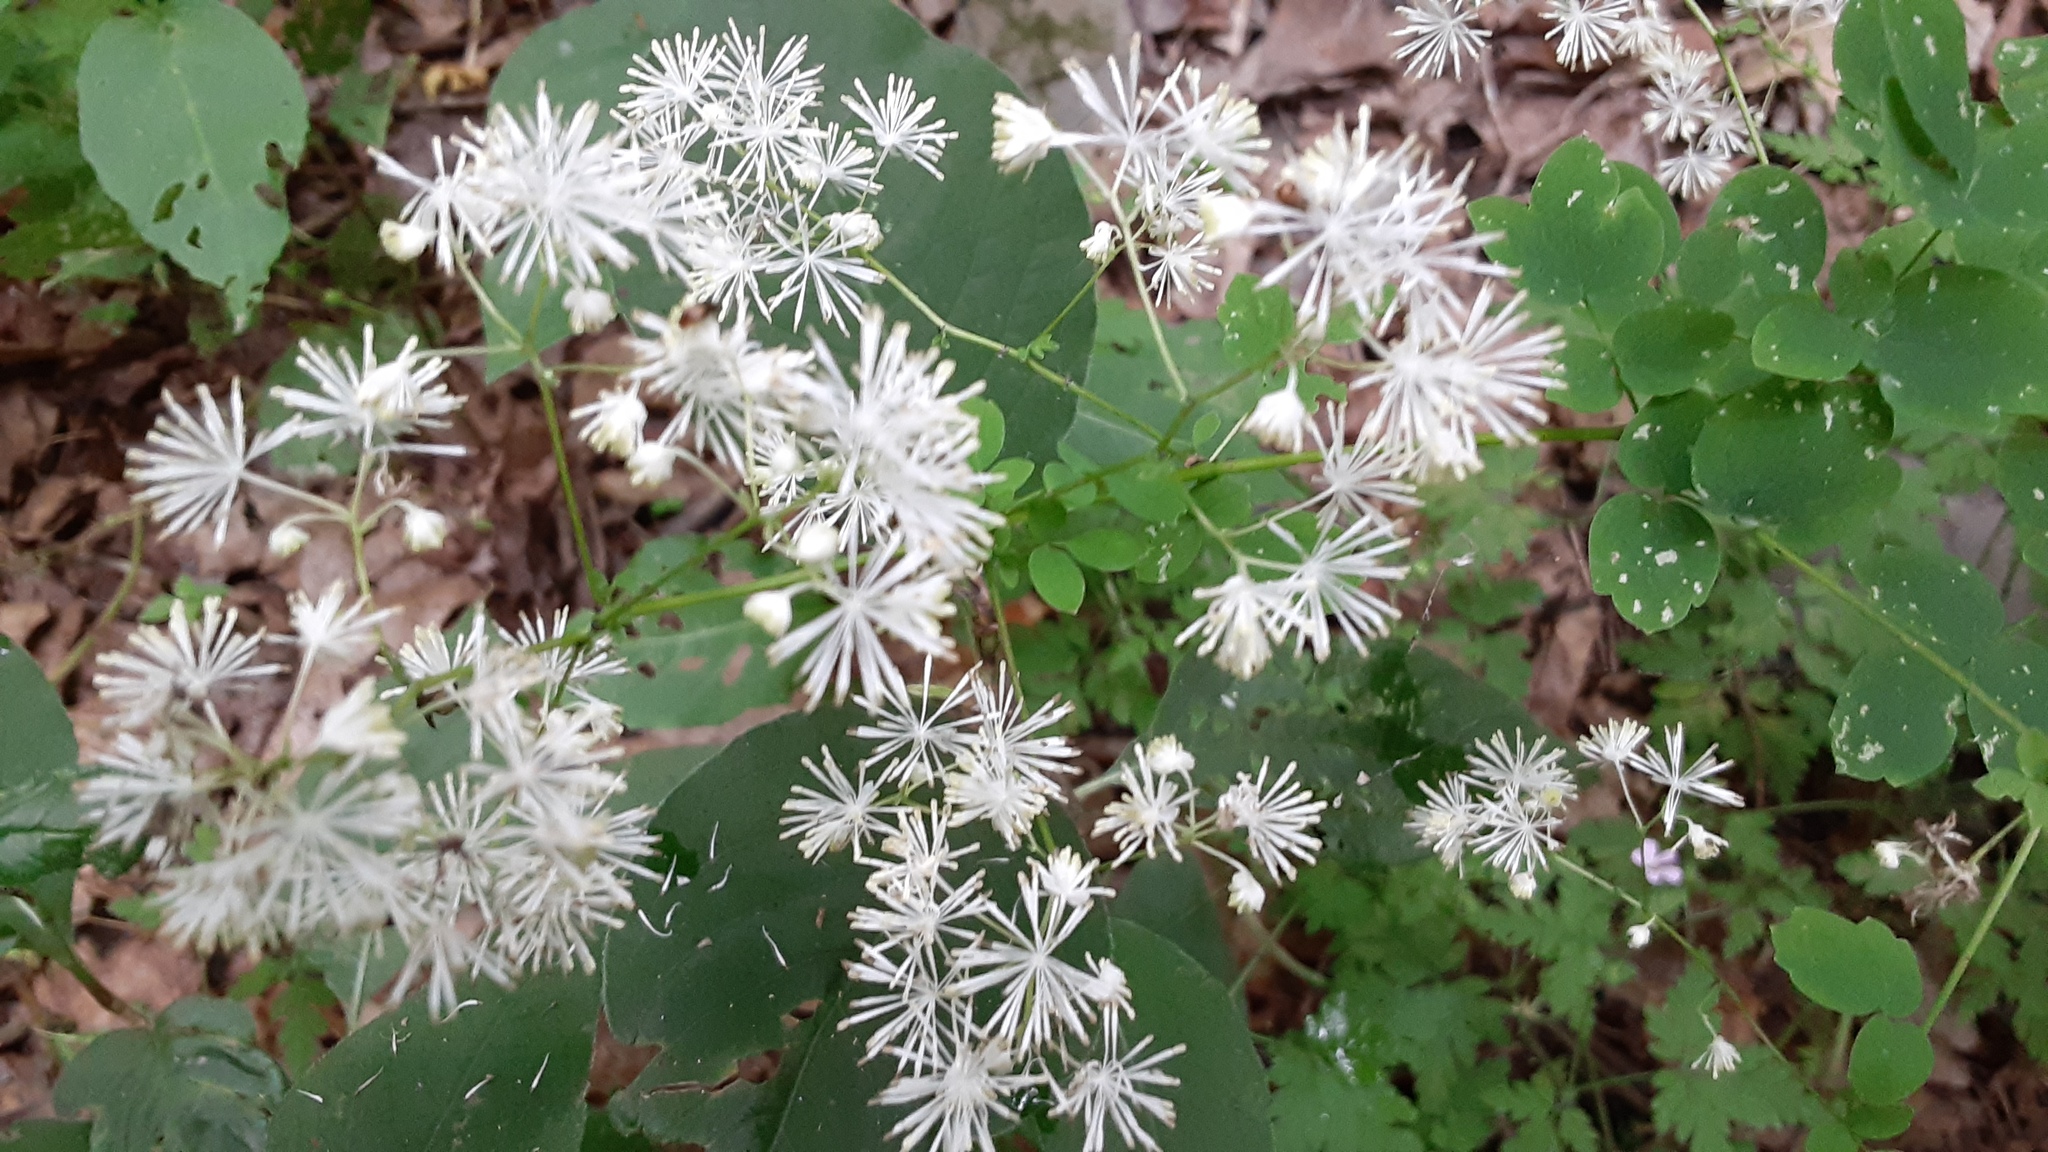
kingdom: Plantae
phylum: Tracheophyta
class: Magnoliopsida
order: Ranunculales
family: Ranunculaceae
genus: Thalictrum
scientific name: Thalictrum pubescens
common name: King-of-the-meadow
